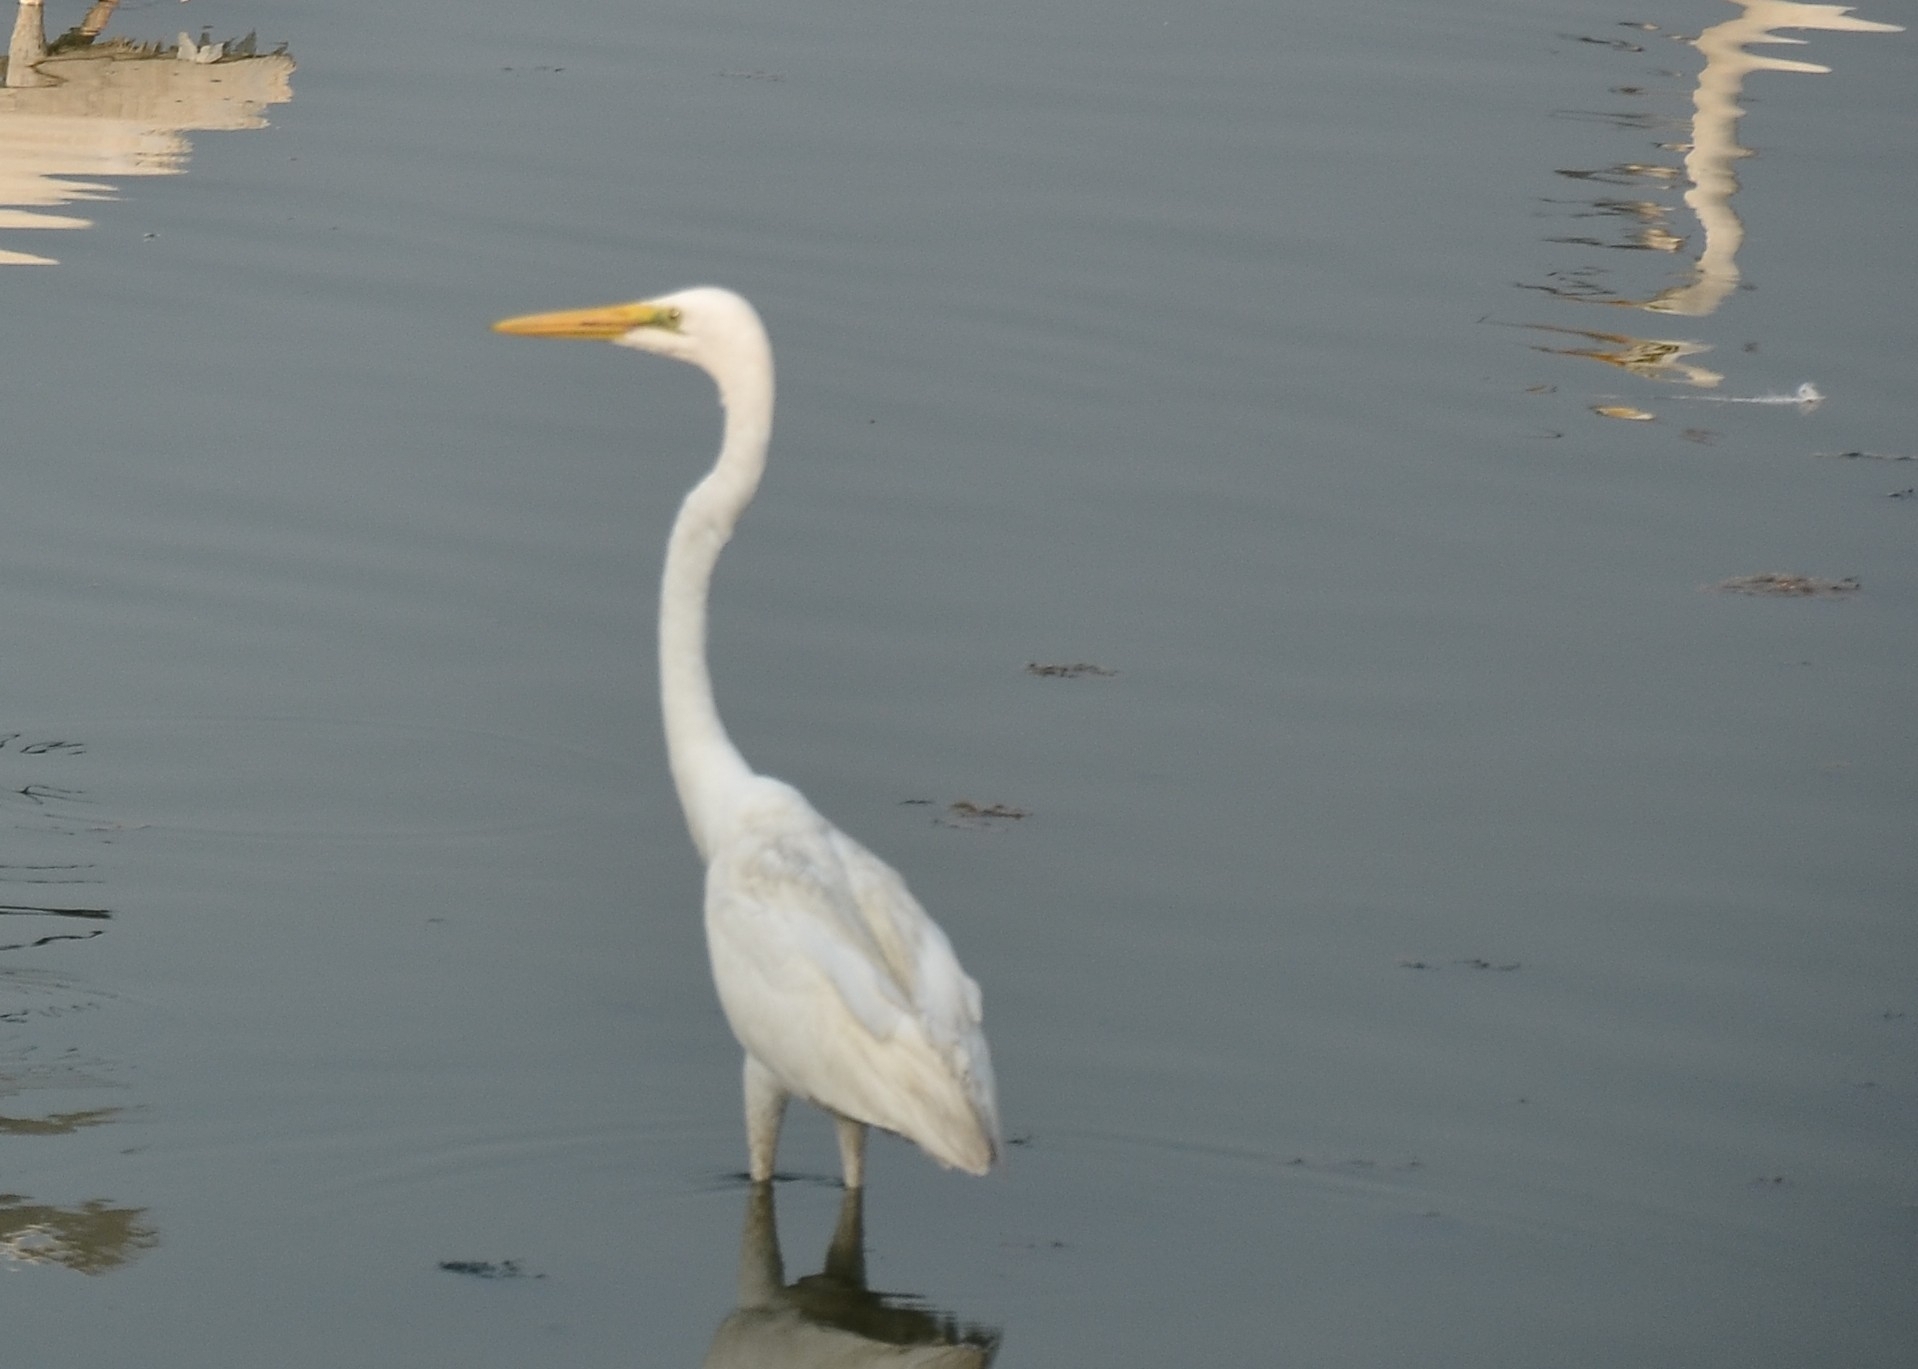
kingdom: Animalia
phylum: Chordata
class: Aves
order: Pelecaniformes
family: Ardeidae
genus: Ardea
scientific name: Ardea alba
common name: Great egret
